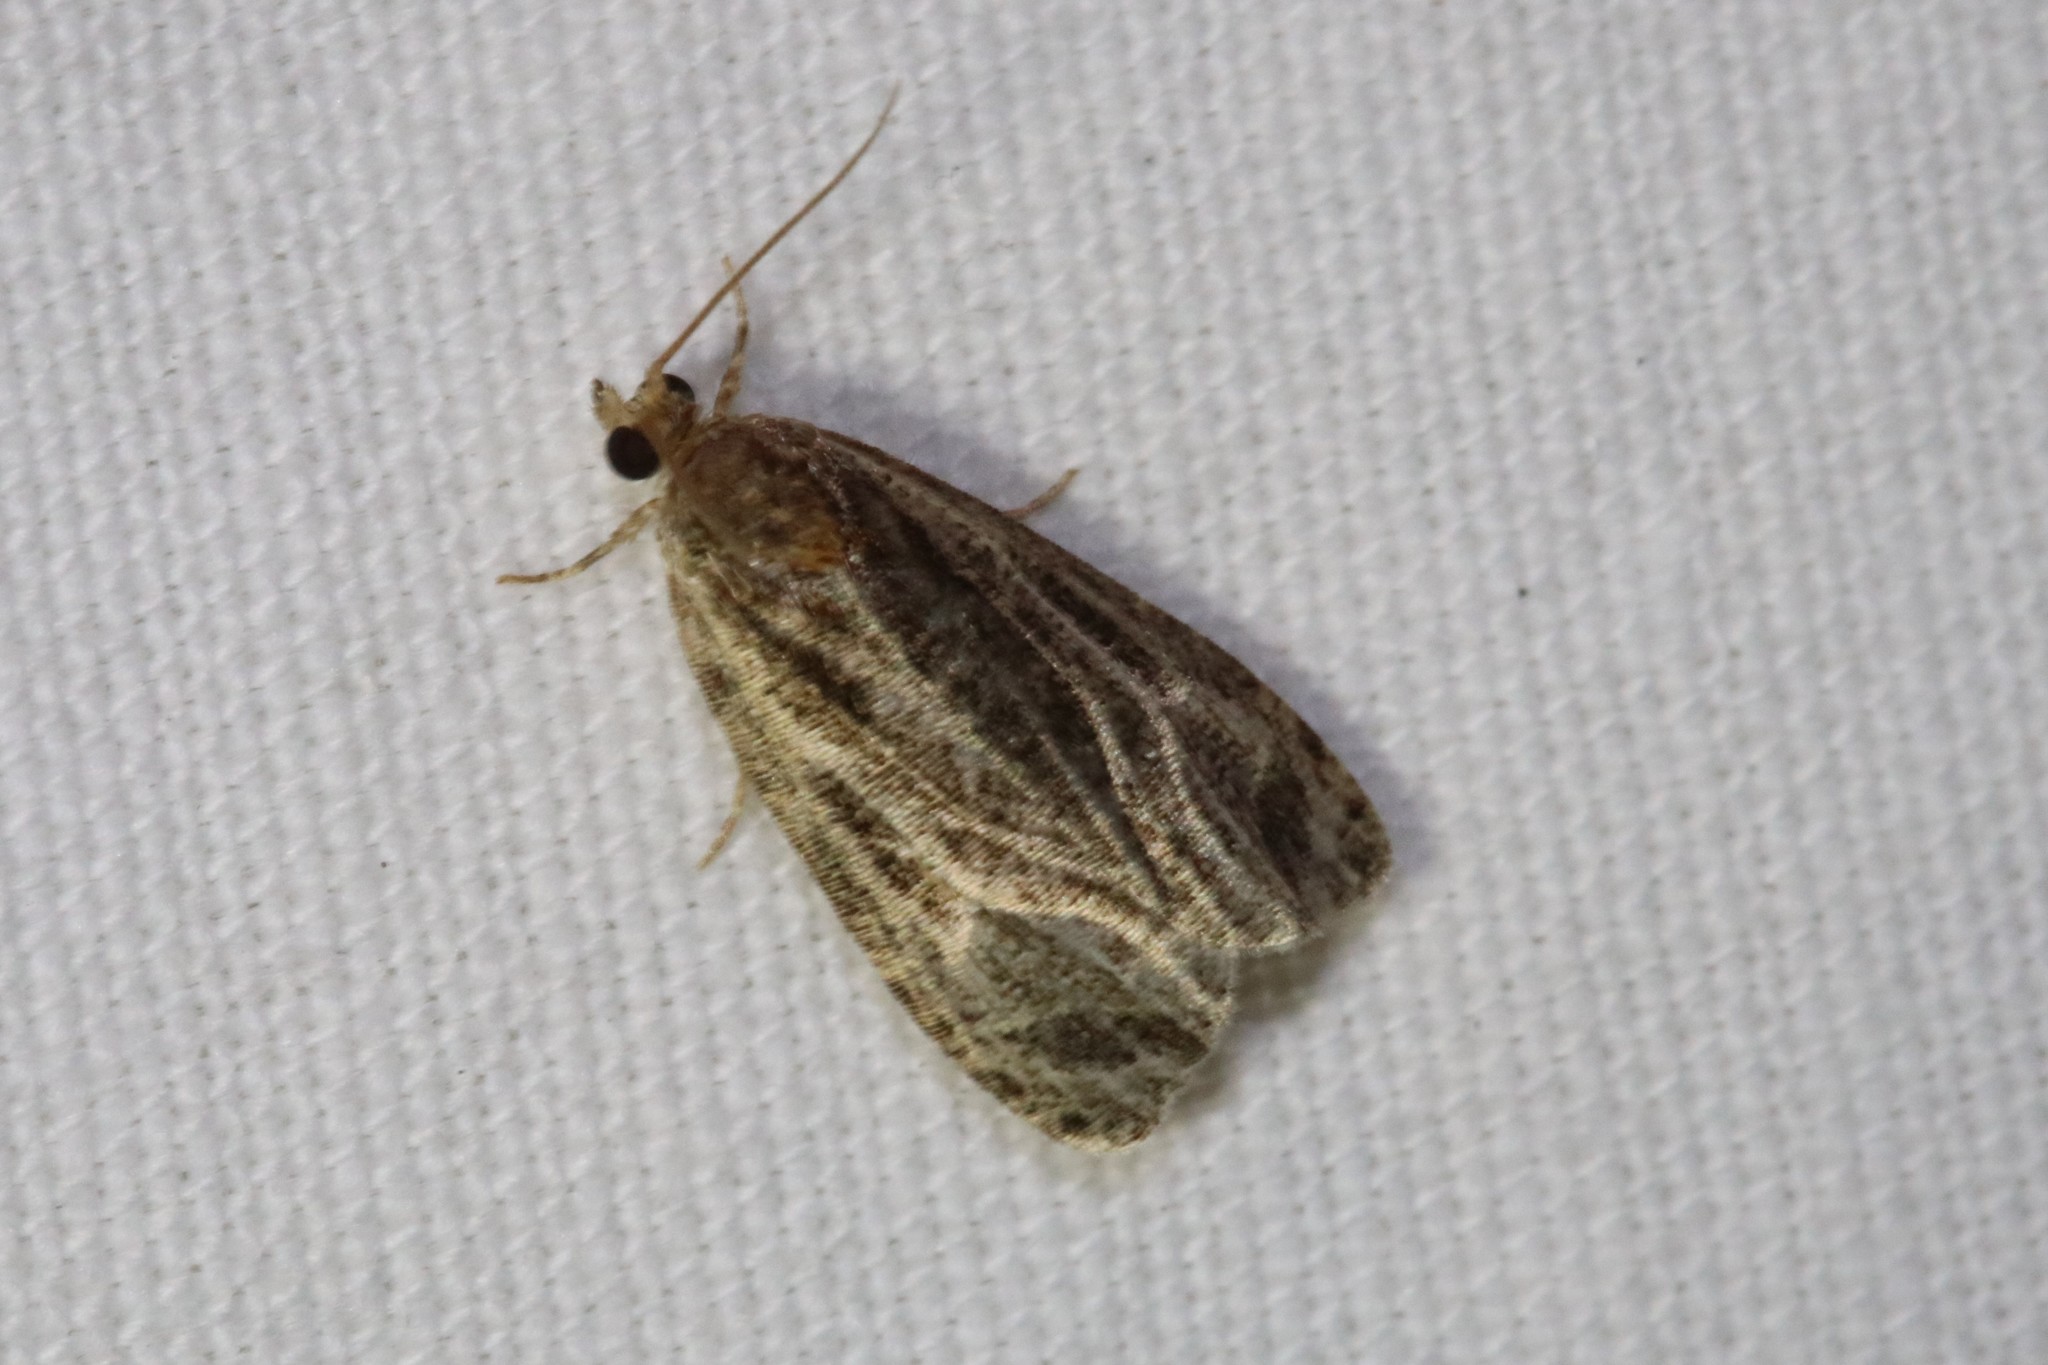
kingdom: Animalia
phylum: Arthropoda
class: Insecta
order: Lepidoptera
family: Tortricidae
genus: Olethreutes
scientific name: Olethreutes quadrifidum
